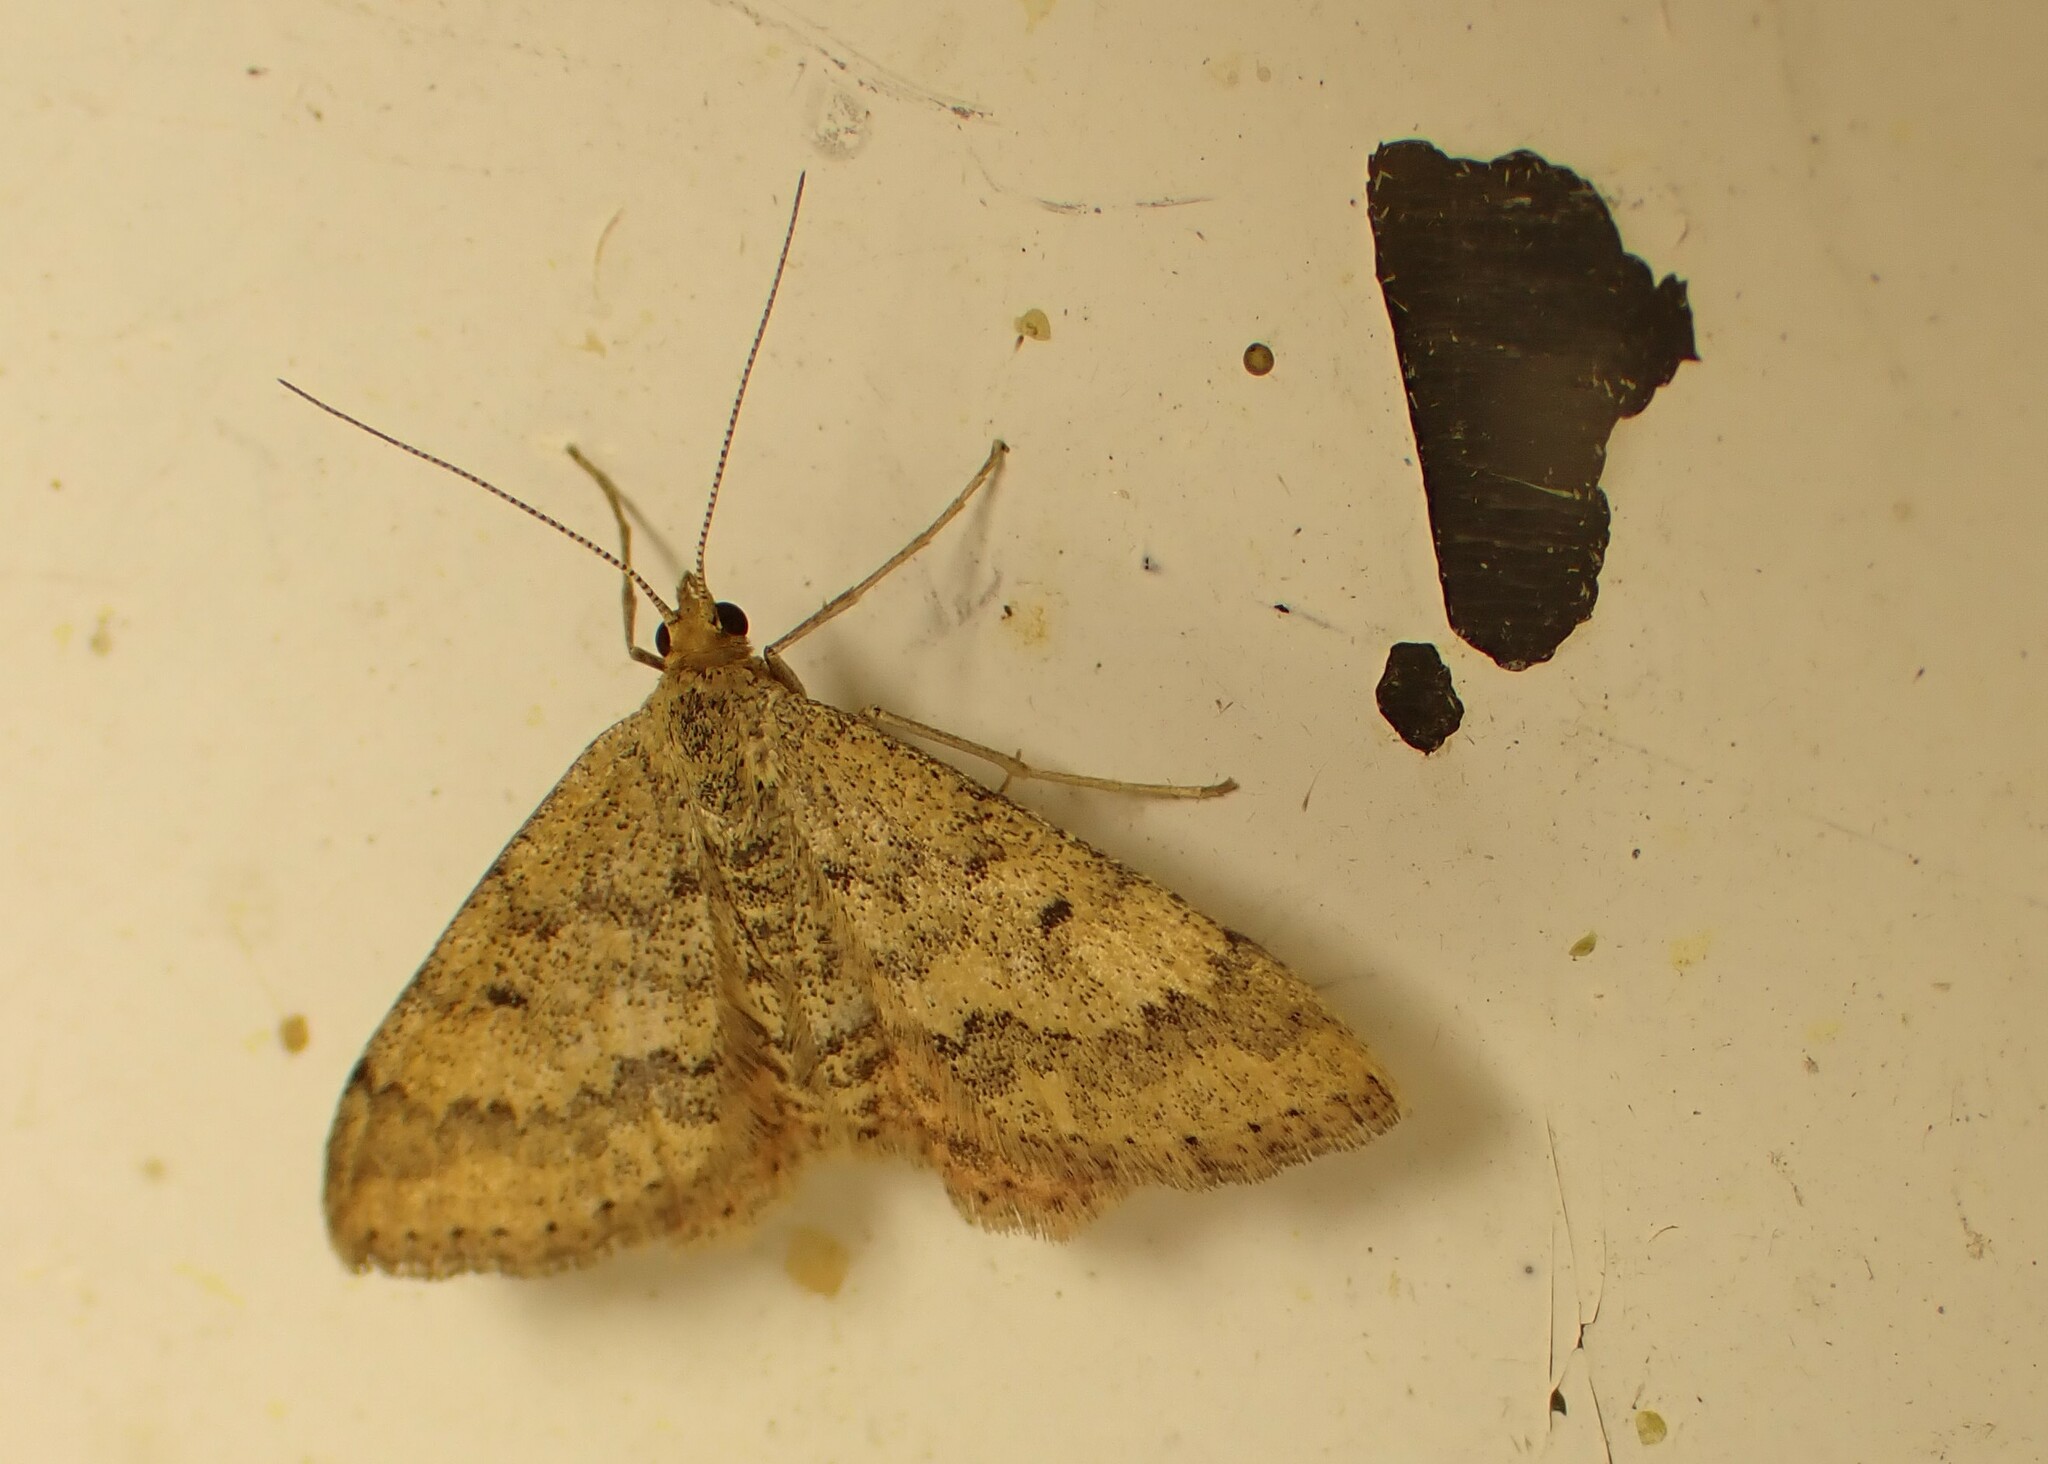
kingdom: Animalia
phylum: Arthropoda
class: Insecta
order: Lepidoptera
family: Geometridae
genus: Scopula
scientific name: Scopula rubraria
